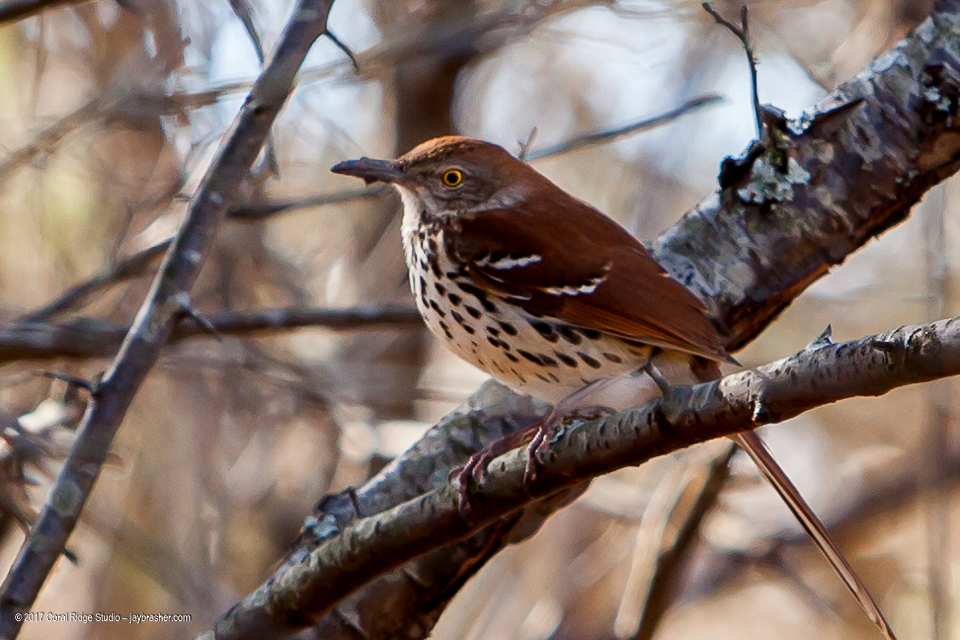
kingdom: Animalia
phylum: Chordata
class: Aves
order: Passeriformes
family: Mimidae
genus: Toxostoma
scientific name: Toxostoma rufum
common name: Brown thrasher
